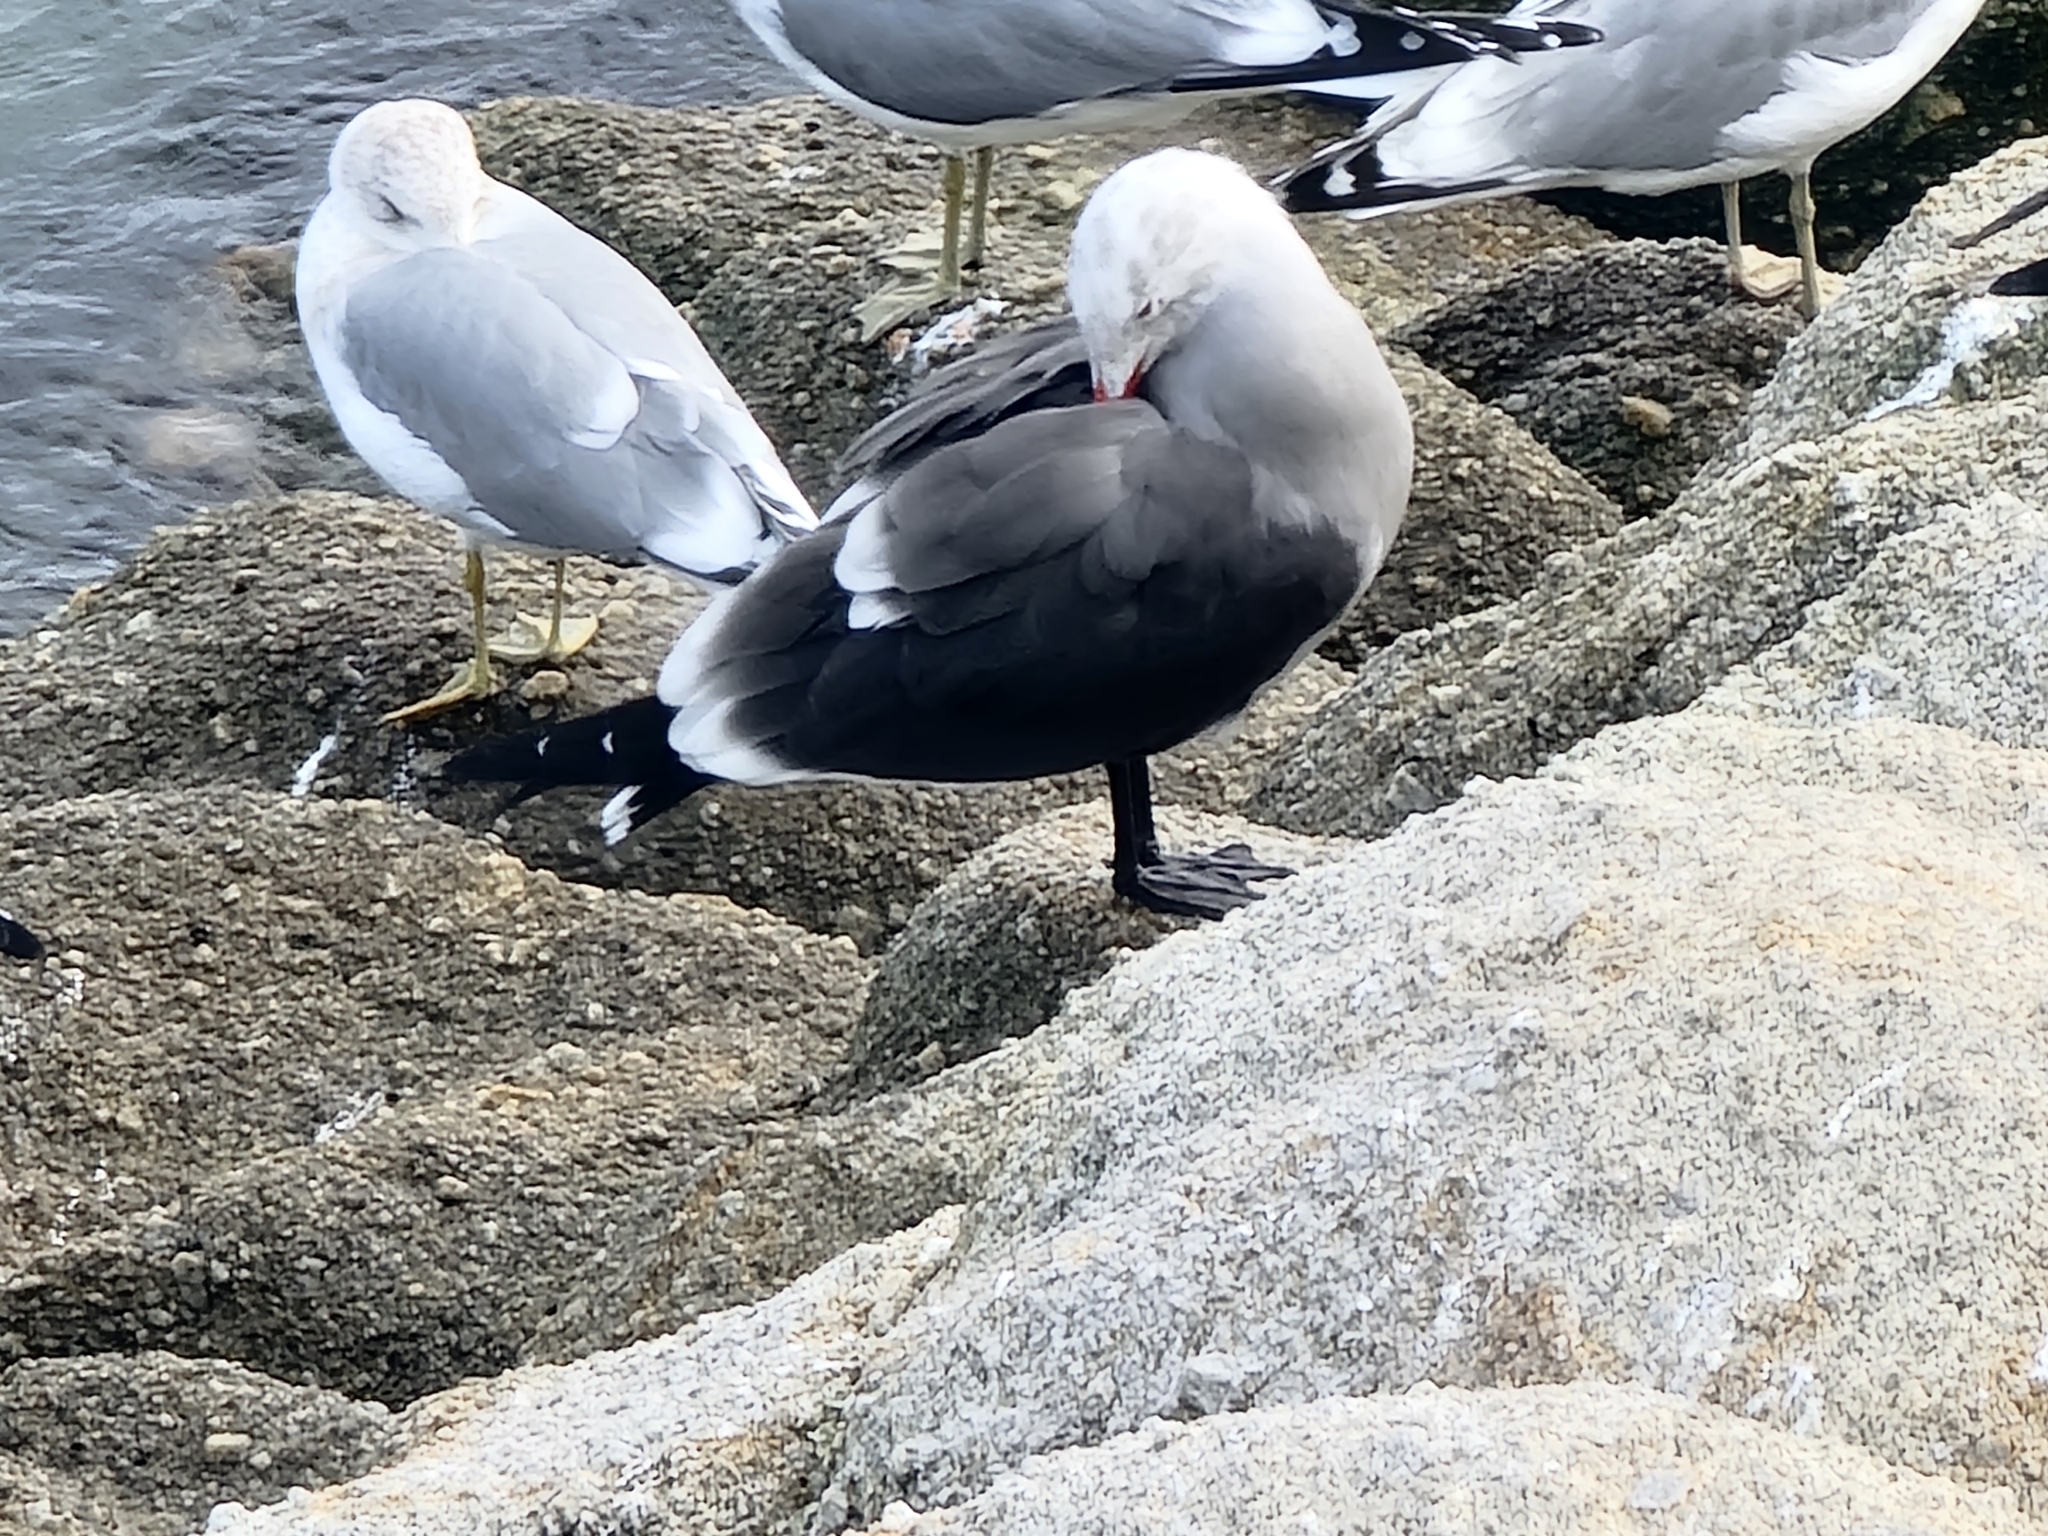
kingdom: Animalia
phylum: Chordata
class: Aves
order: Charadriiformes
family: Laridae
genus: Larus
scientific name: Larus heermanni
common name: Heermann's gull
